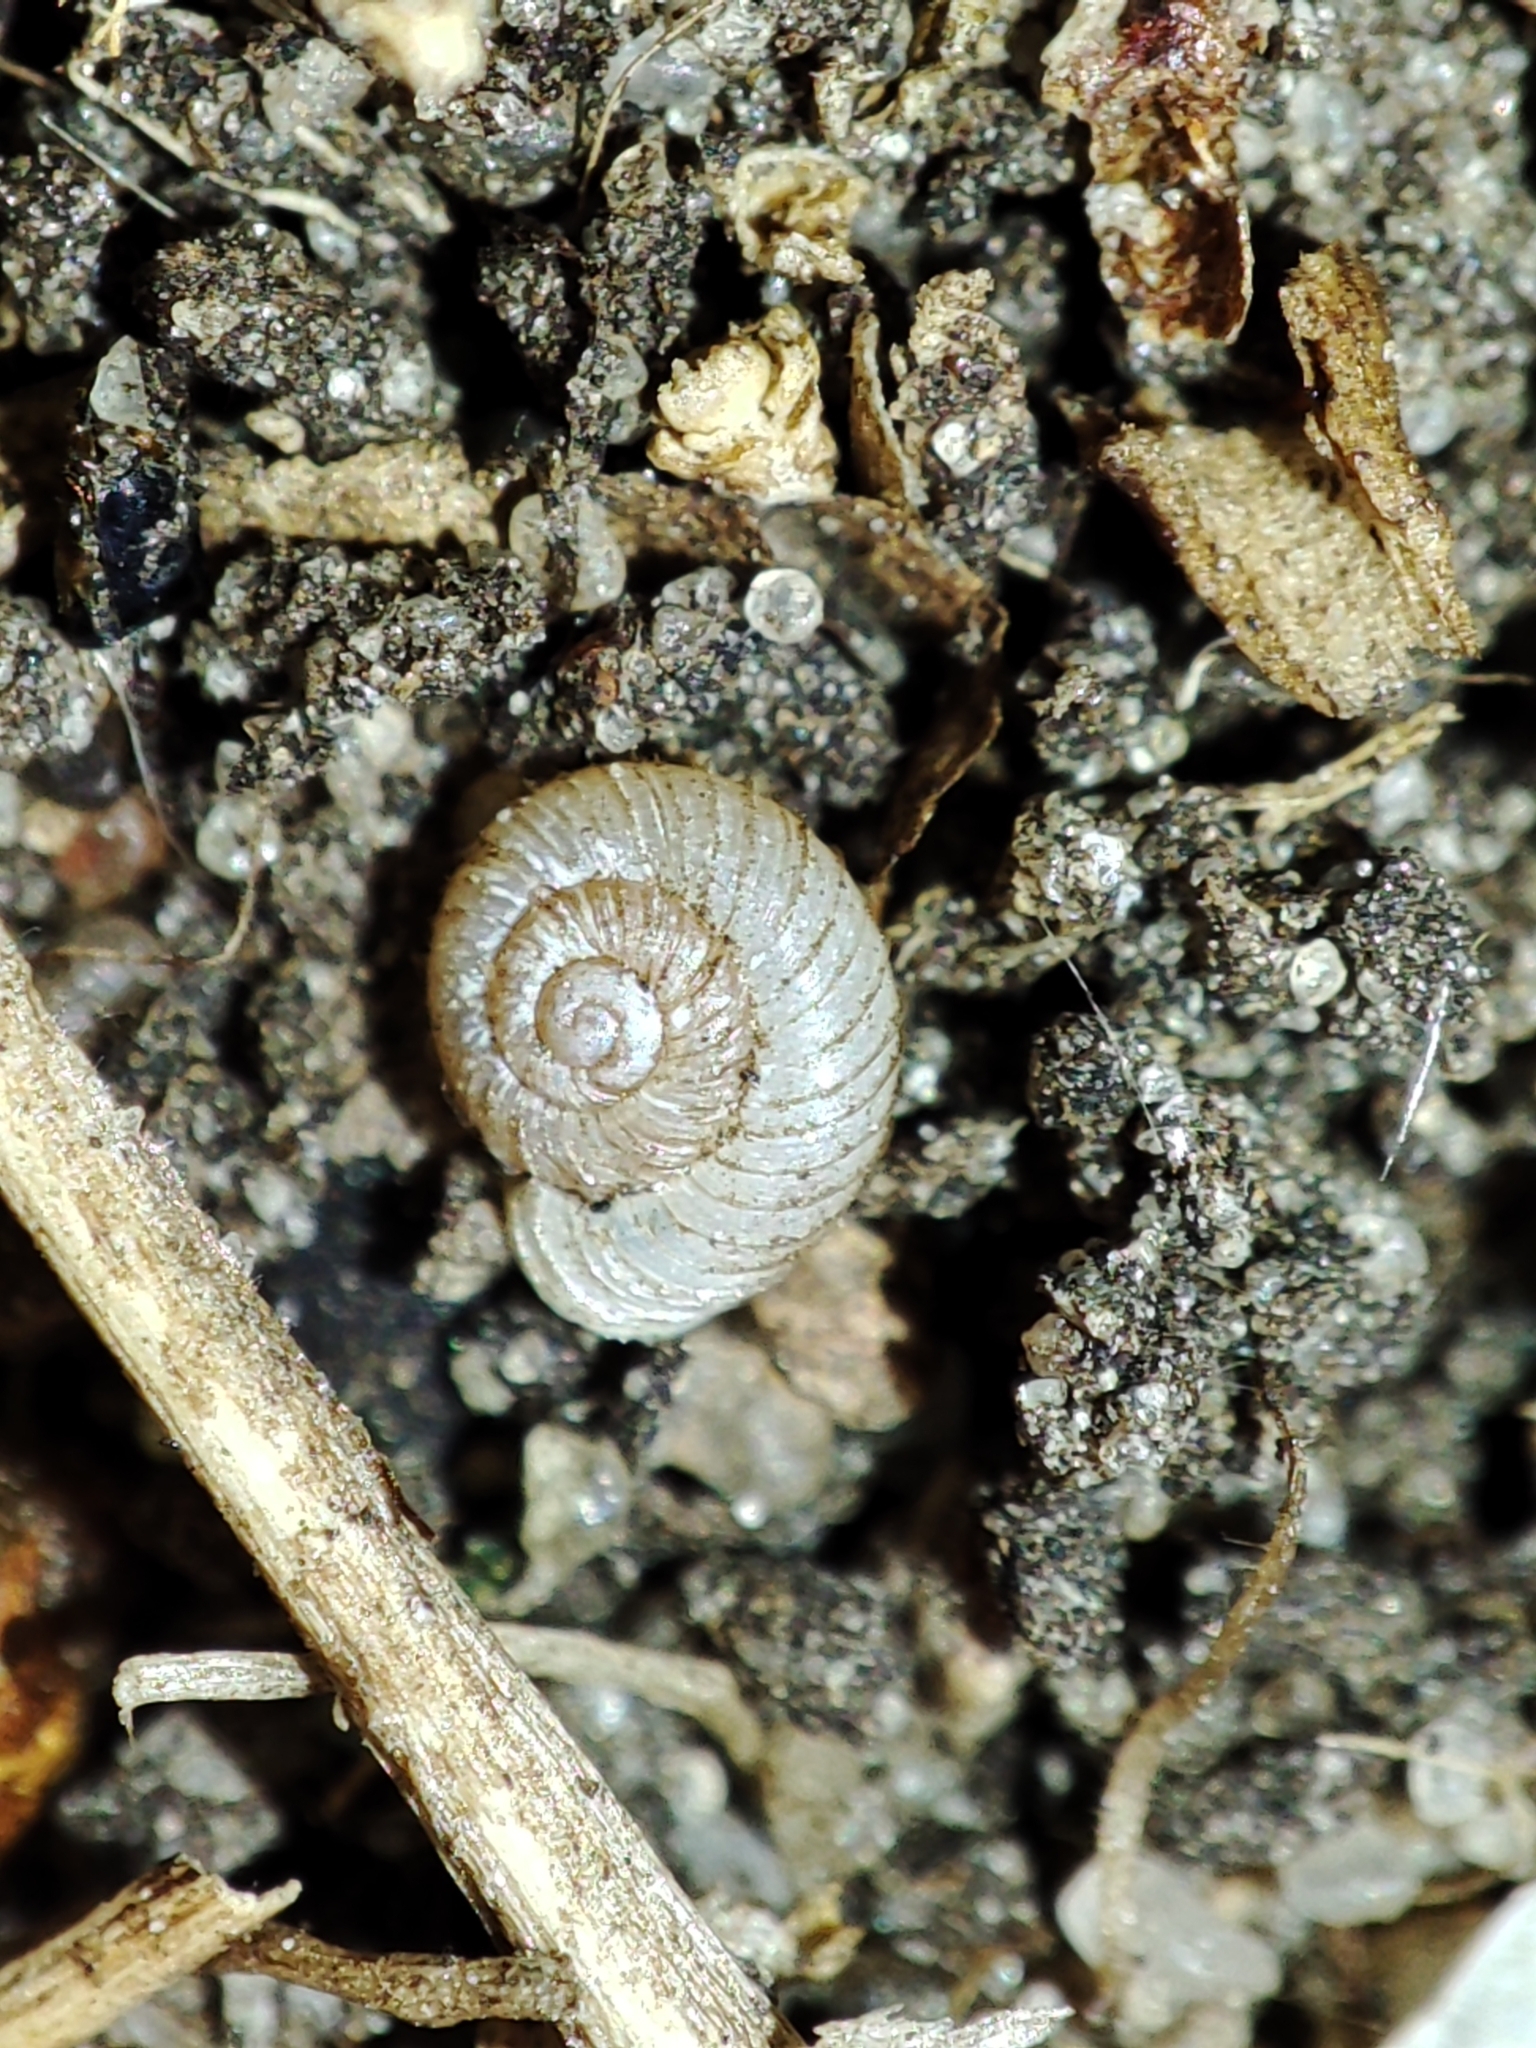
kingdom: Animalia
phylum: Mollusca
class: Gastropoda
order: Stylommatophora
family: Valloniidae
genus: Vallonia
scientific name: Vallonia costata
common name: Ribbed grass snail
